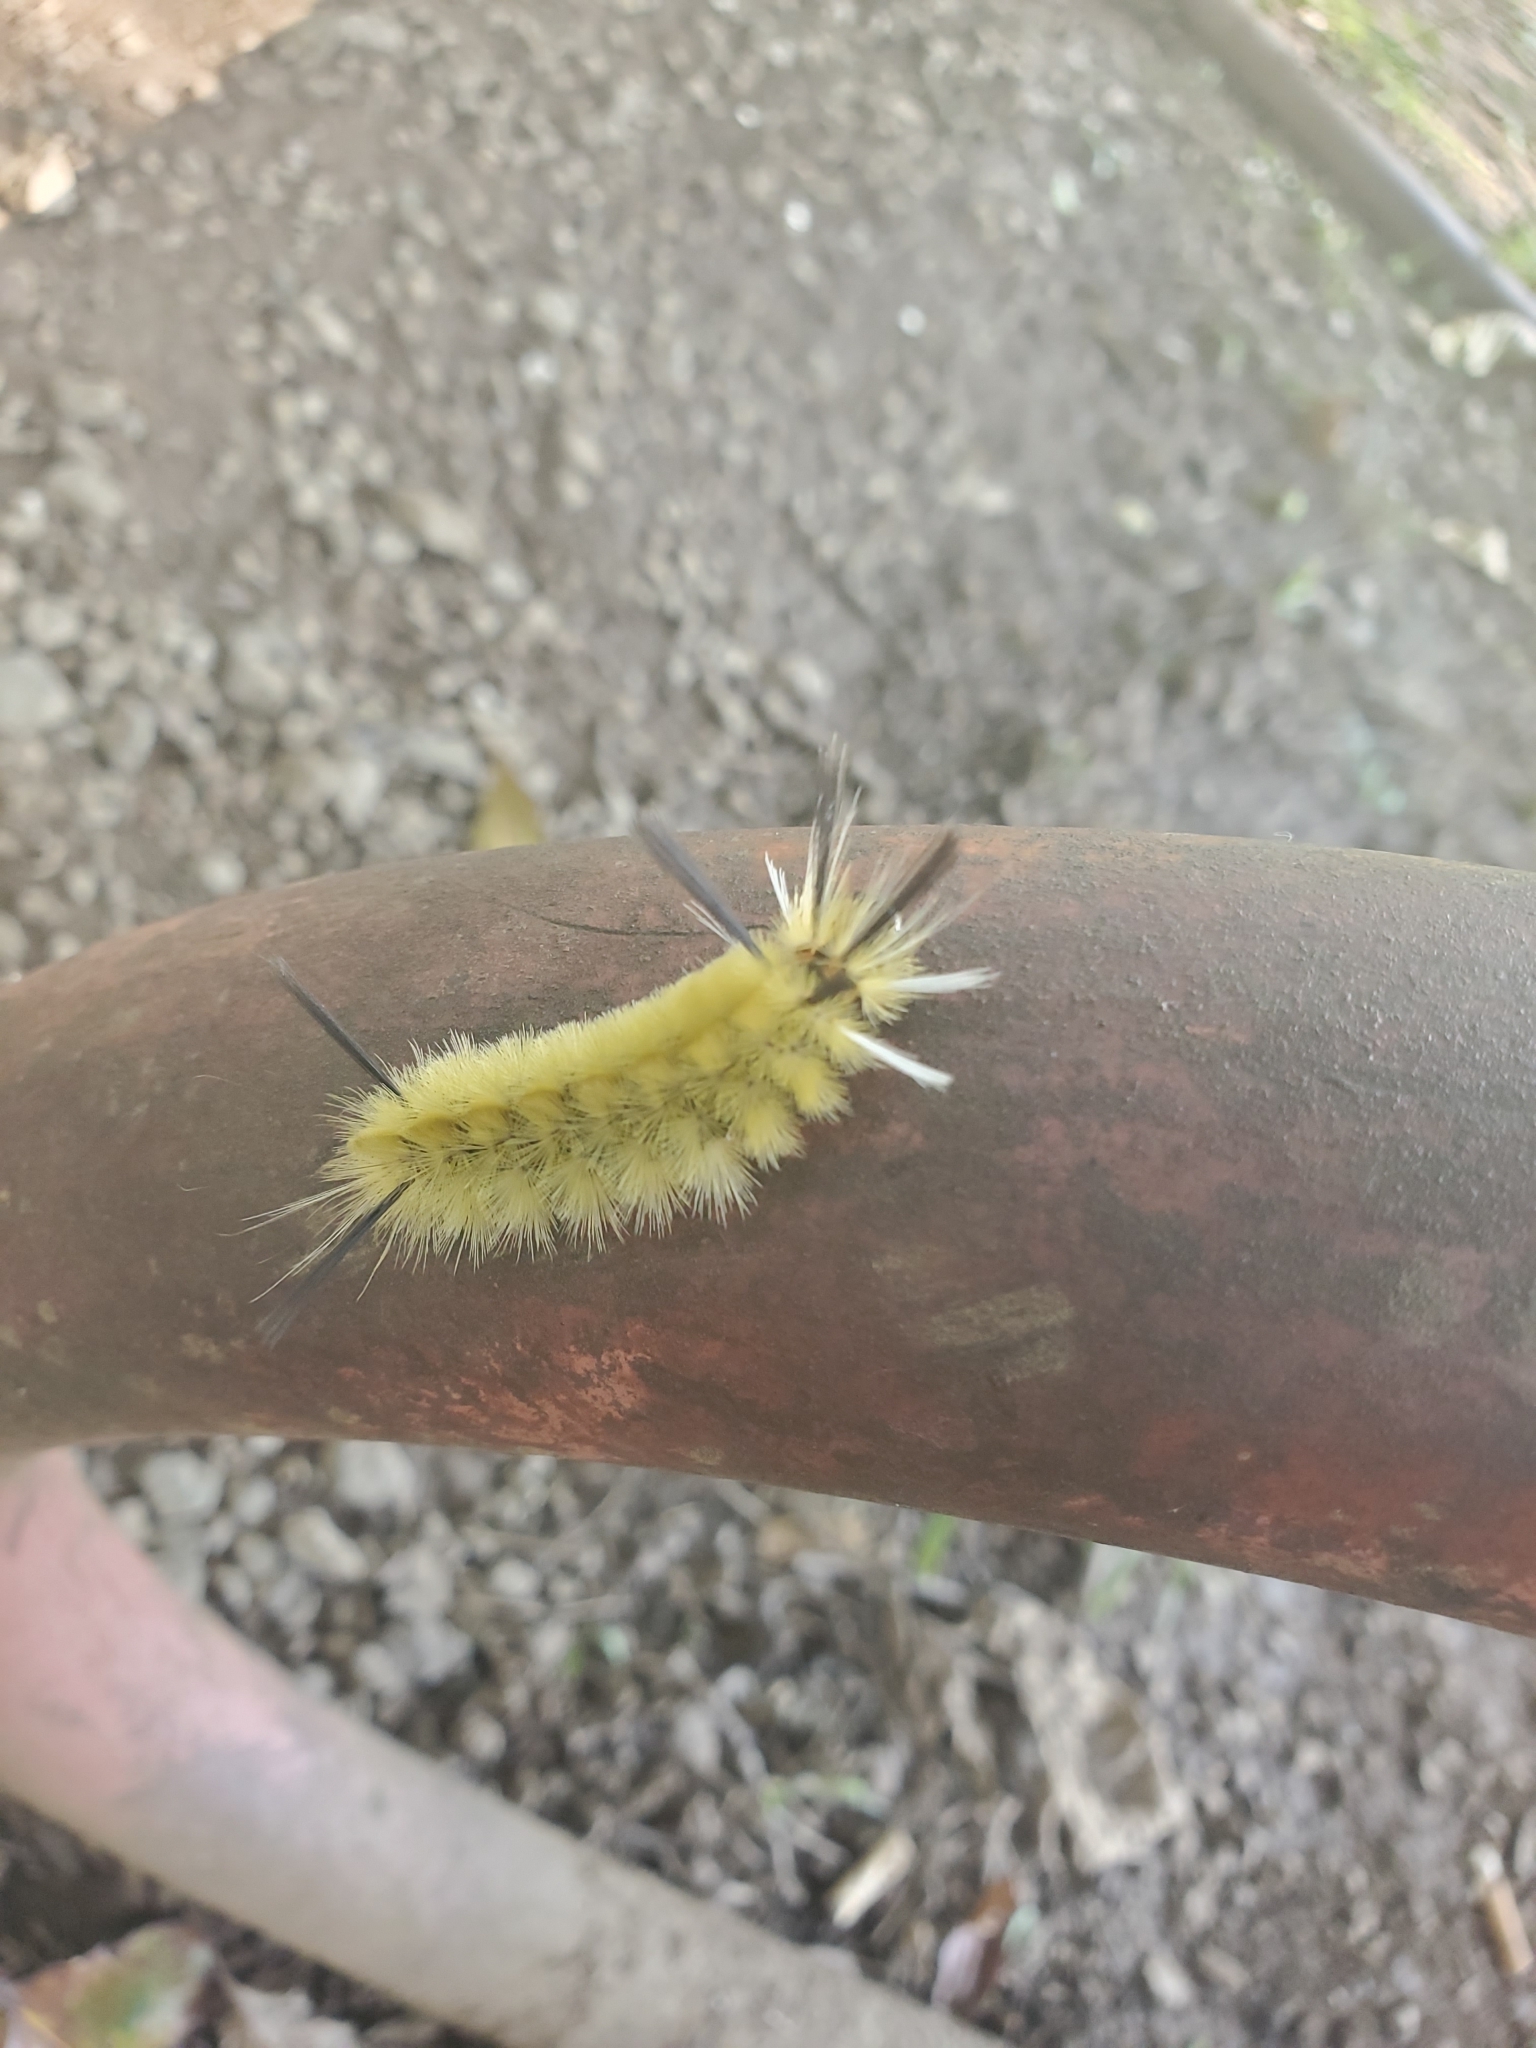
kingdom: Animalia
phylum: Arthropoda
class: Insecta
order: Lepidoptera
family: Erebidae
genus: Halysidota
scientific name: Halysidota tessellaris
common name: Banded tussock moth
